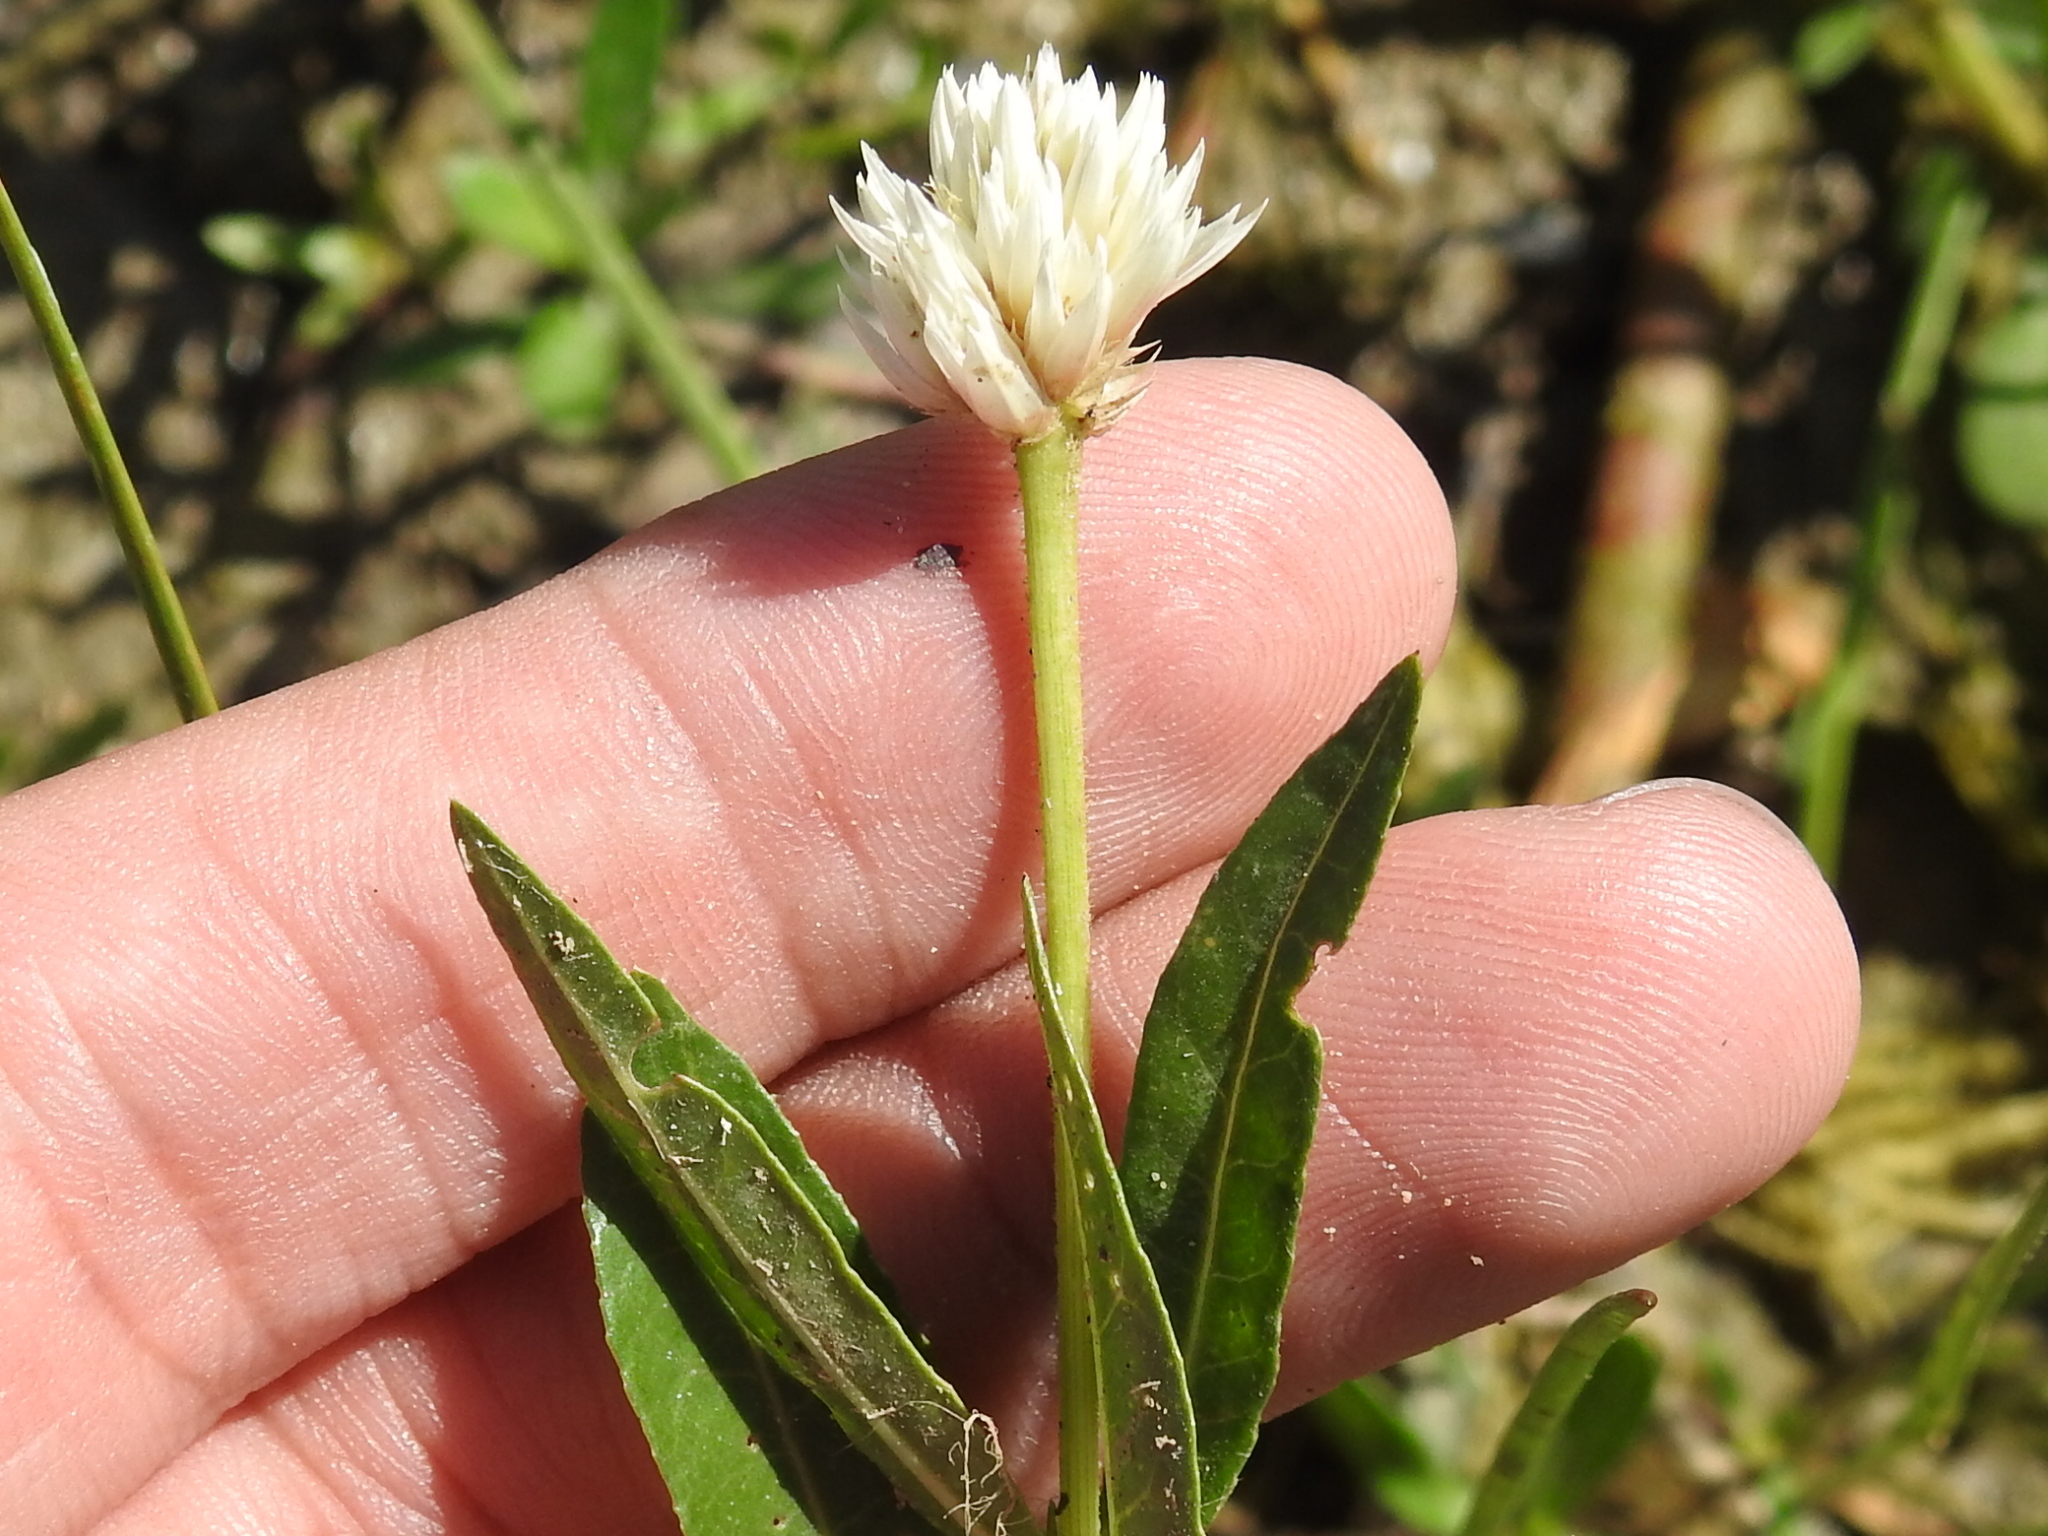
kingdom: Plantae
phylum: Tracheophyta
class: Magnoliopsida
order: Caryophyllales
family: Amaranthaceae
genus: Alternanthera
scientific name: Alternanthera philoxeroides
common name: Alligatorweed
